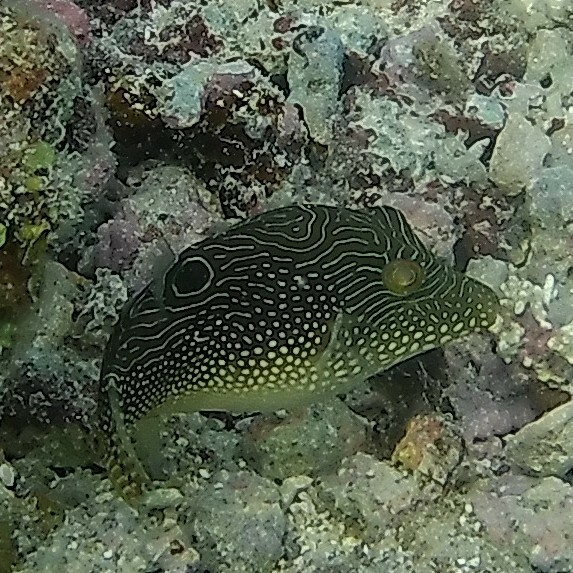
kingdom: Animalia
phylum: Chordata
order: Tetraodontiformes
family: Tetraodontidae
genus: Canthigaster
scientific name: Canthigaster petersii
